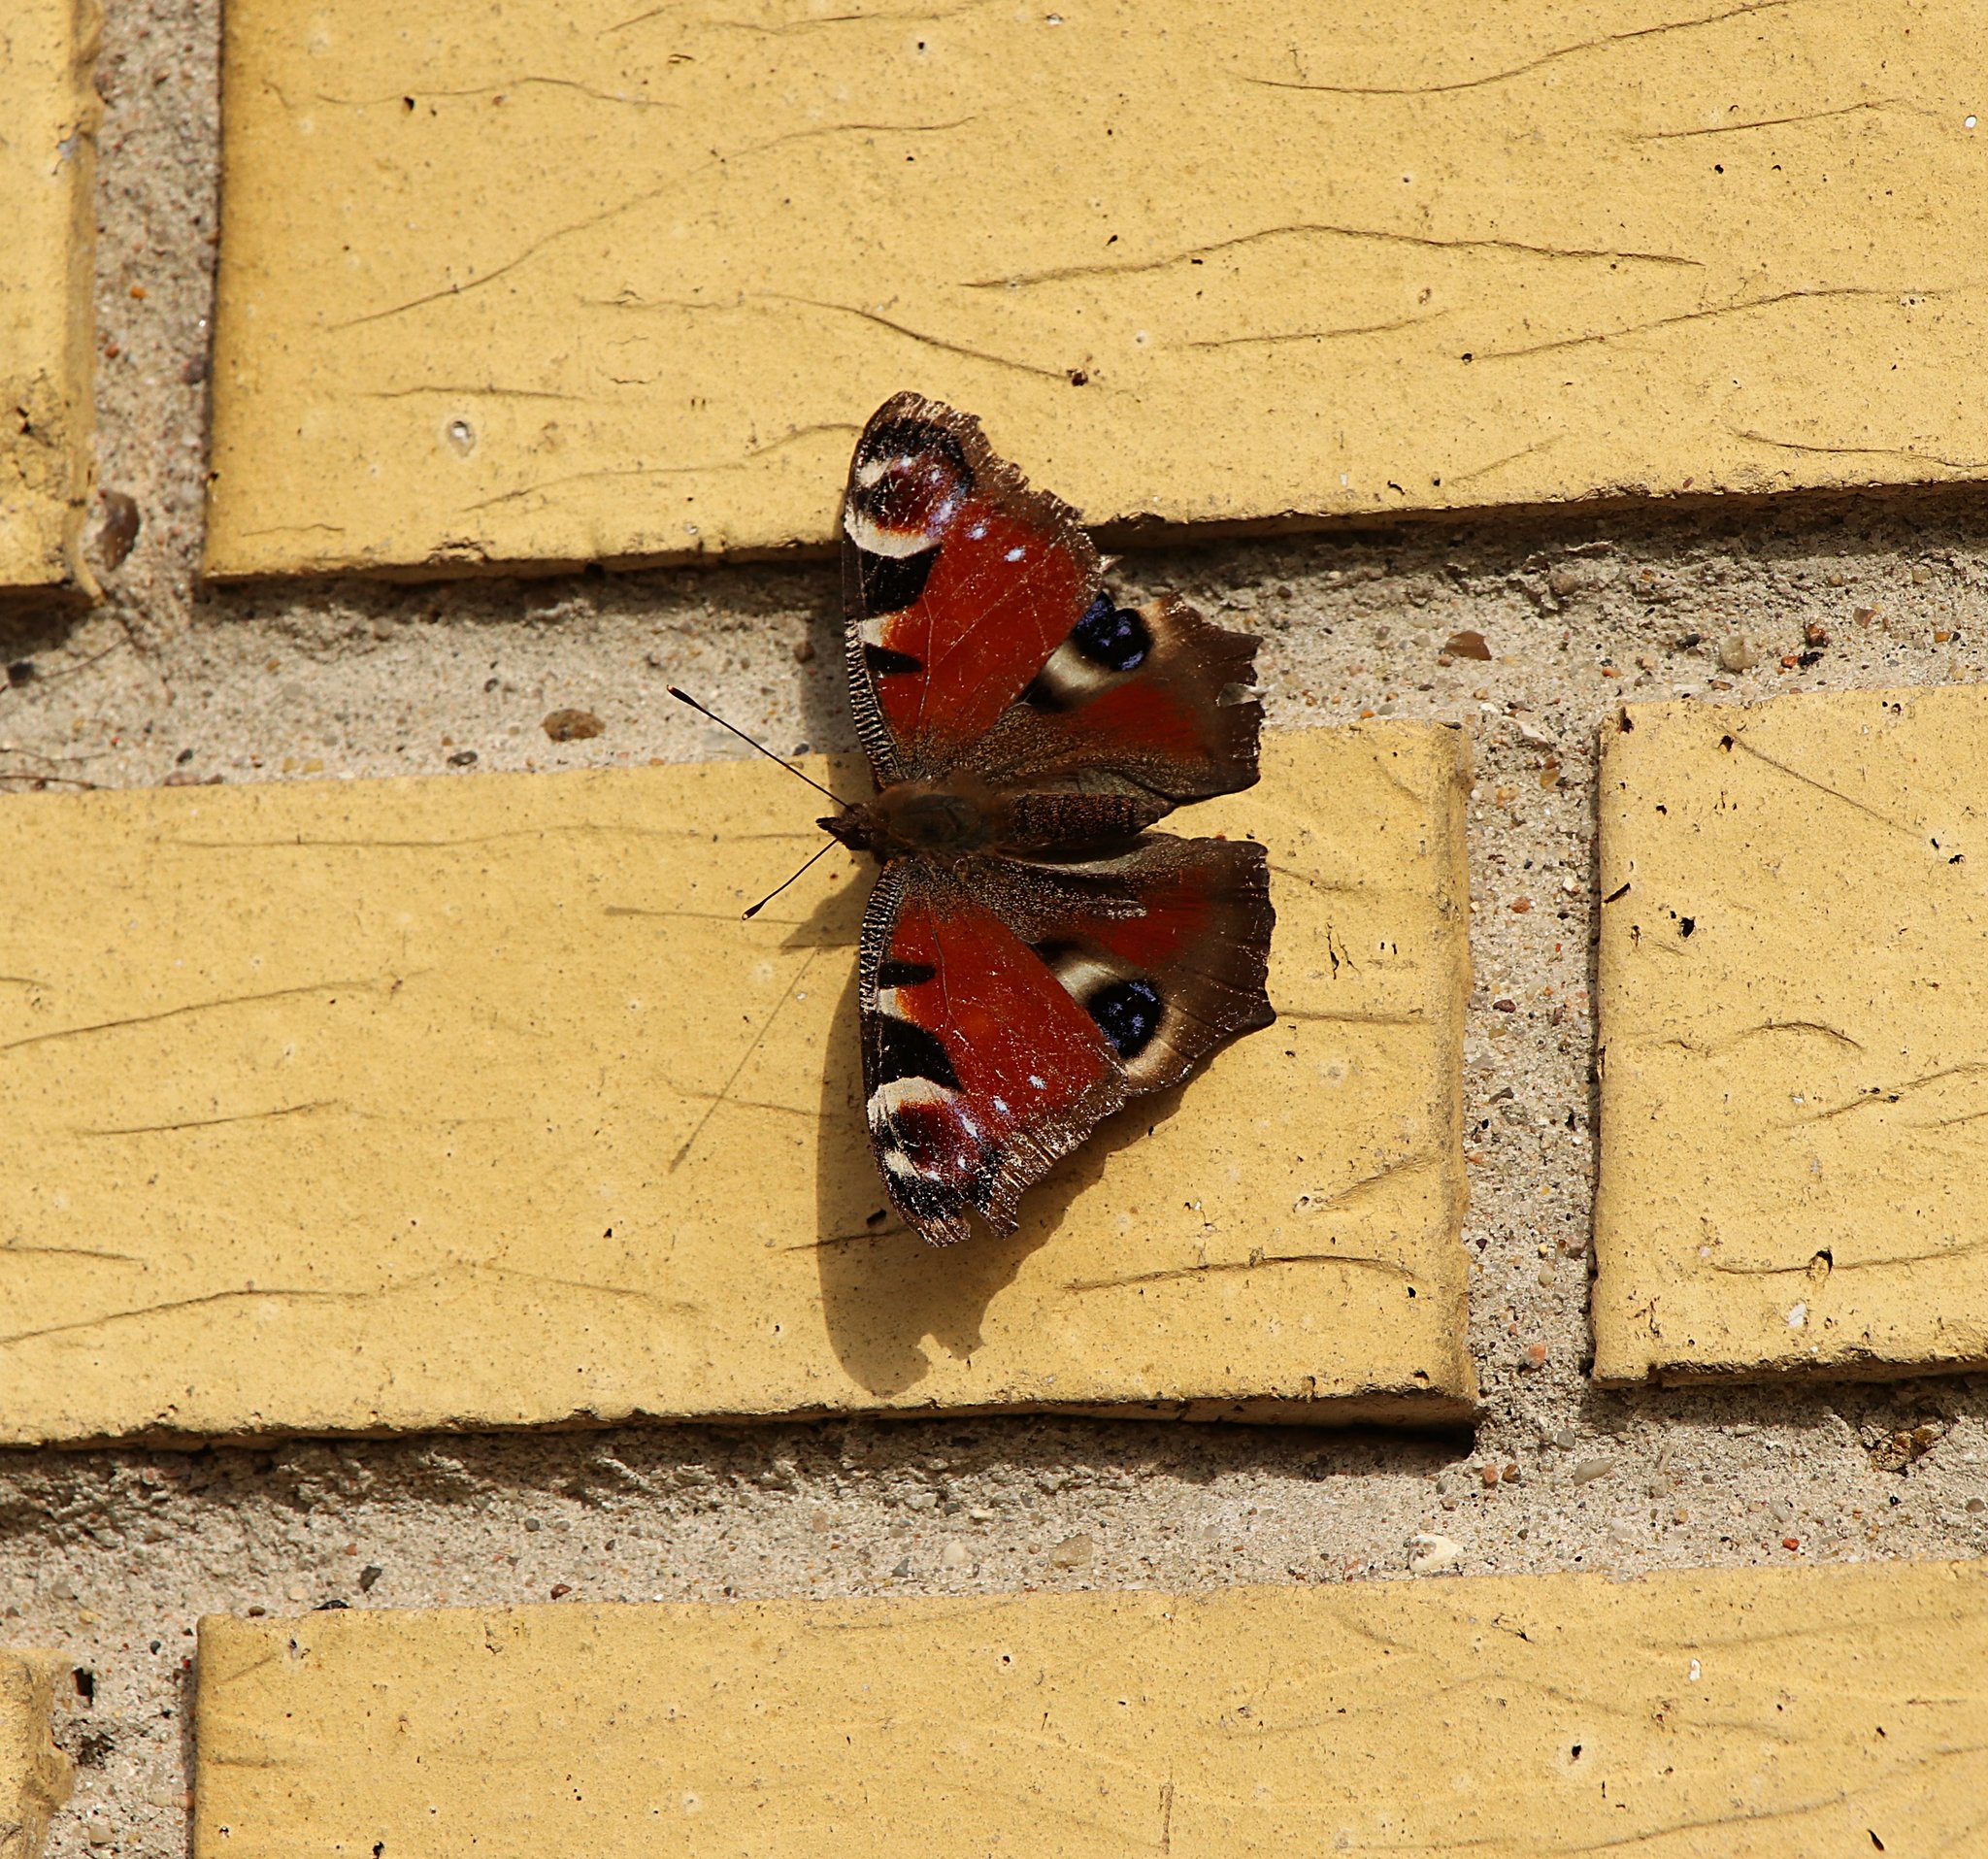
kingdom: Animalia
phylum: Arthropoda
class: Insecta
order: Lepidoptera
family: Nymphalidae
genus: Aglais
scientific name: Aglais io
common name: Peacock
